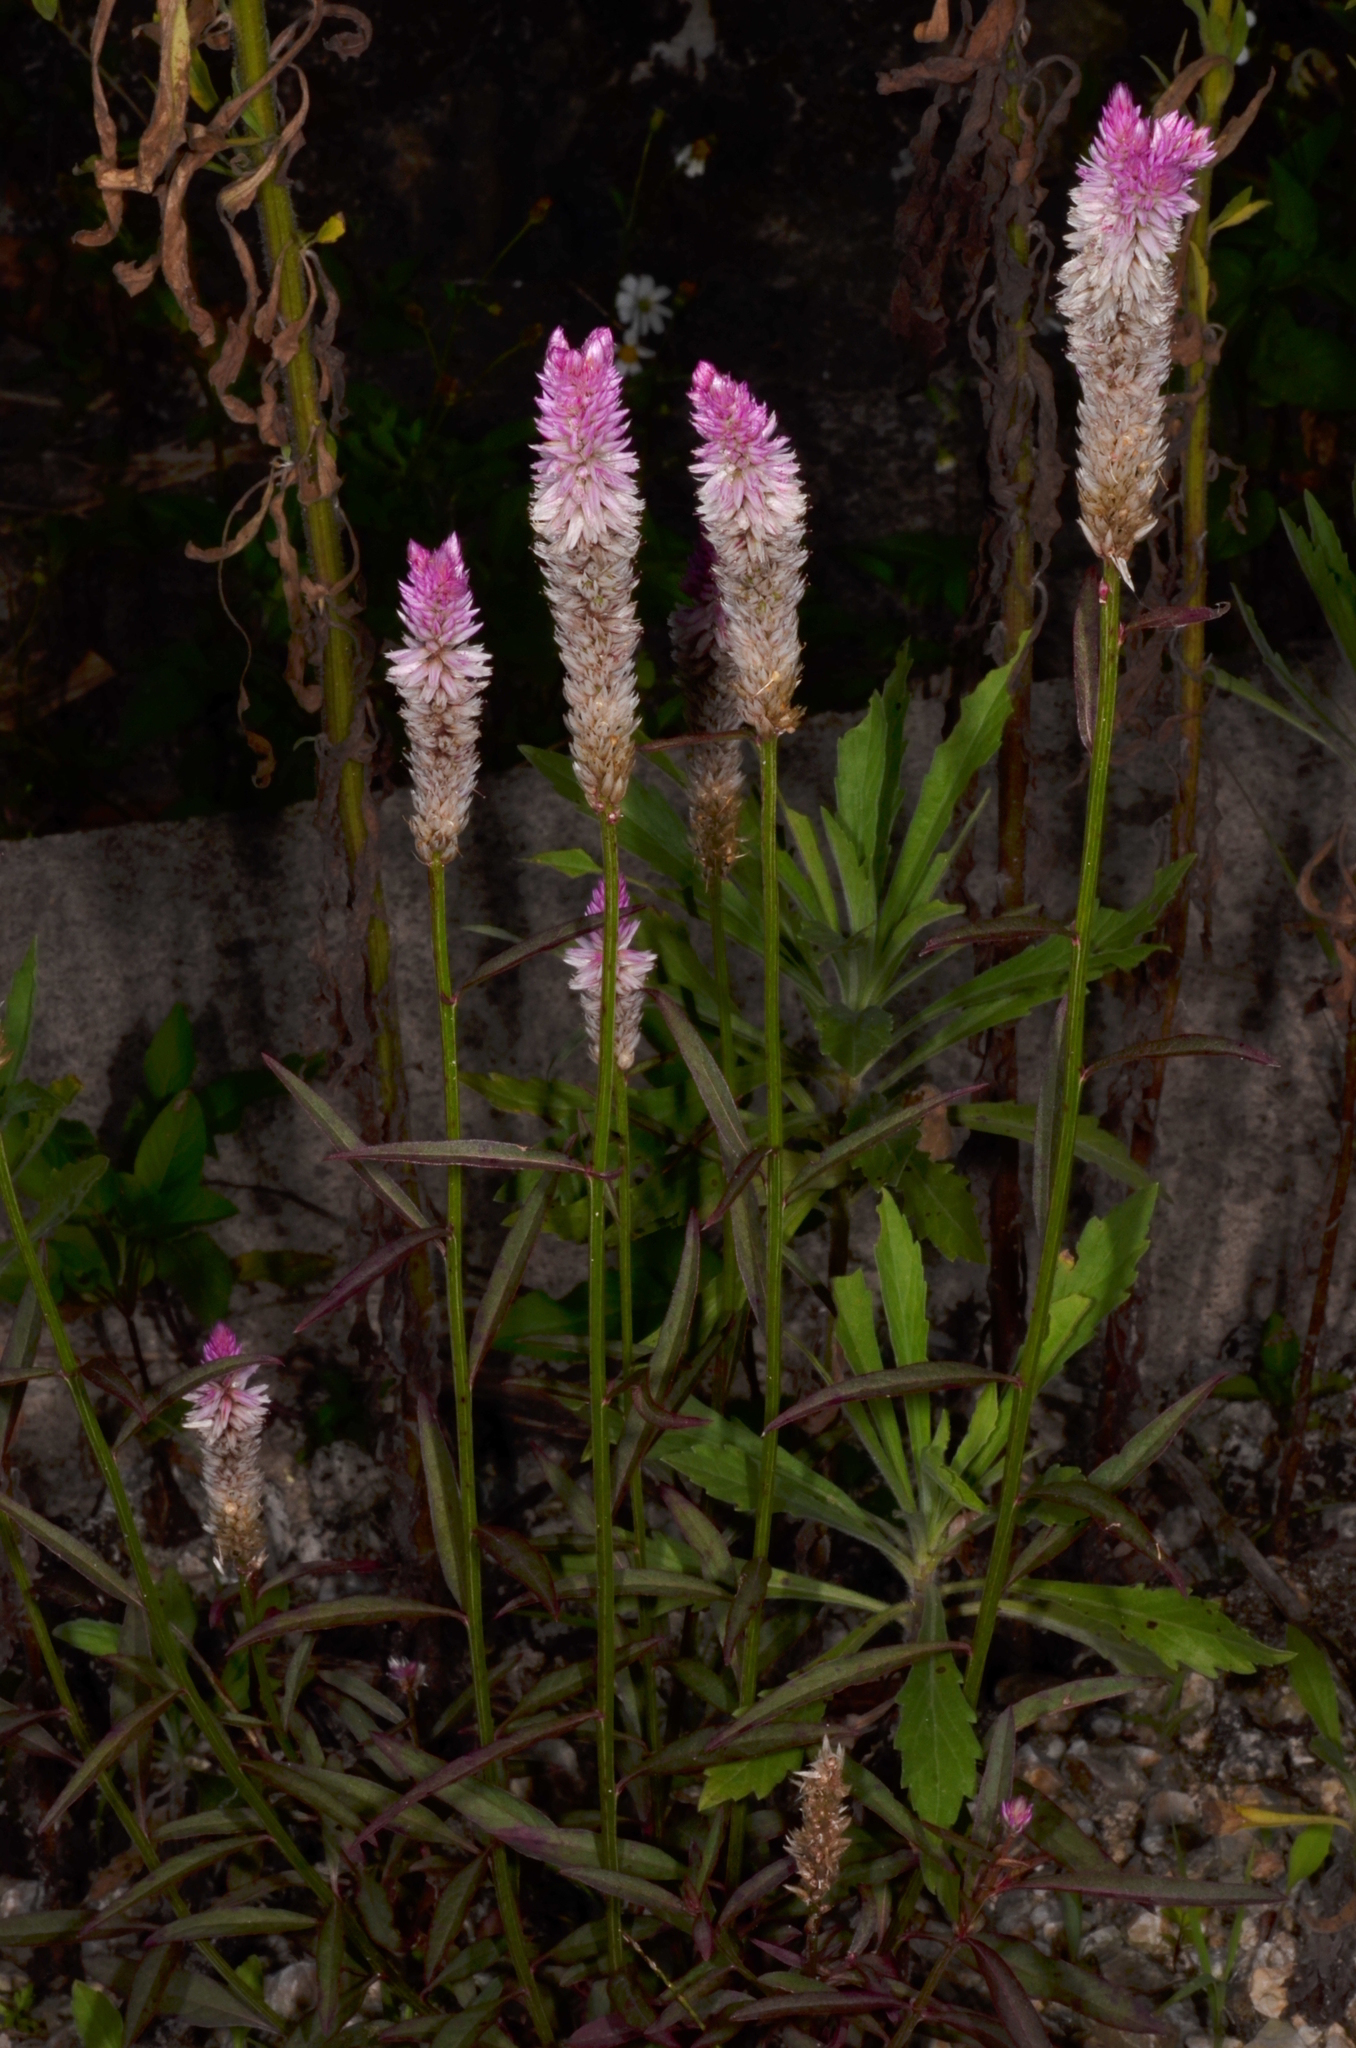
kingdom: Plantae
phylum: Tracheophyta
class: Magnoliopsida
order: Caryophyllales
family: Amaranthaceae
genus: Celosia
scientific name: Celosia spicata
